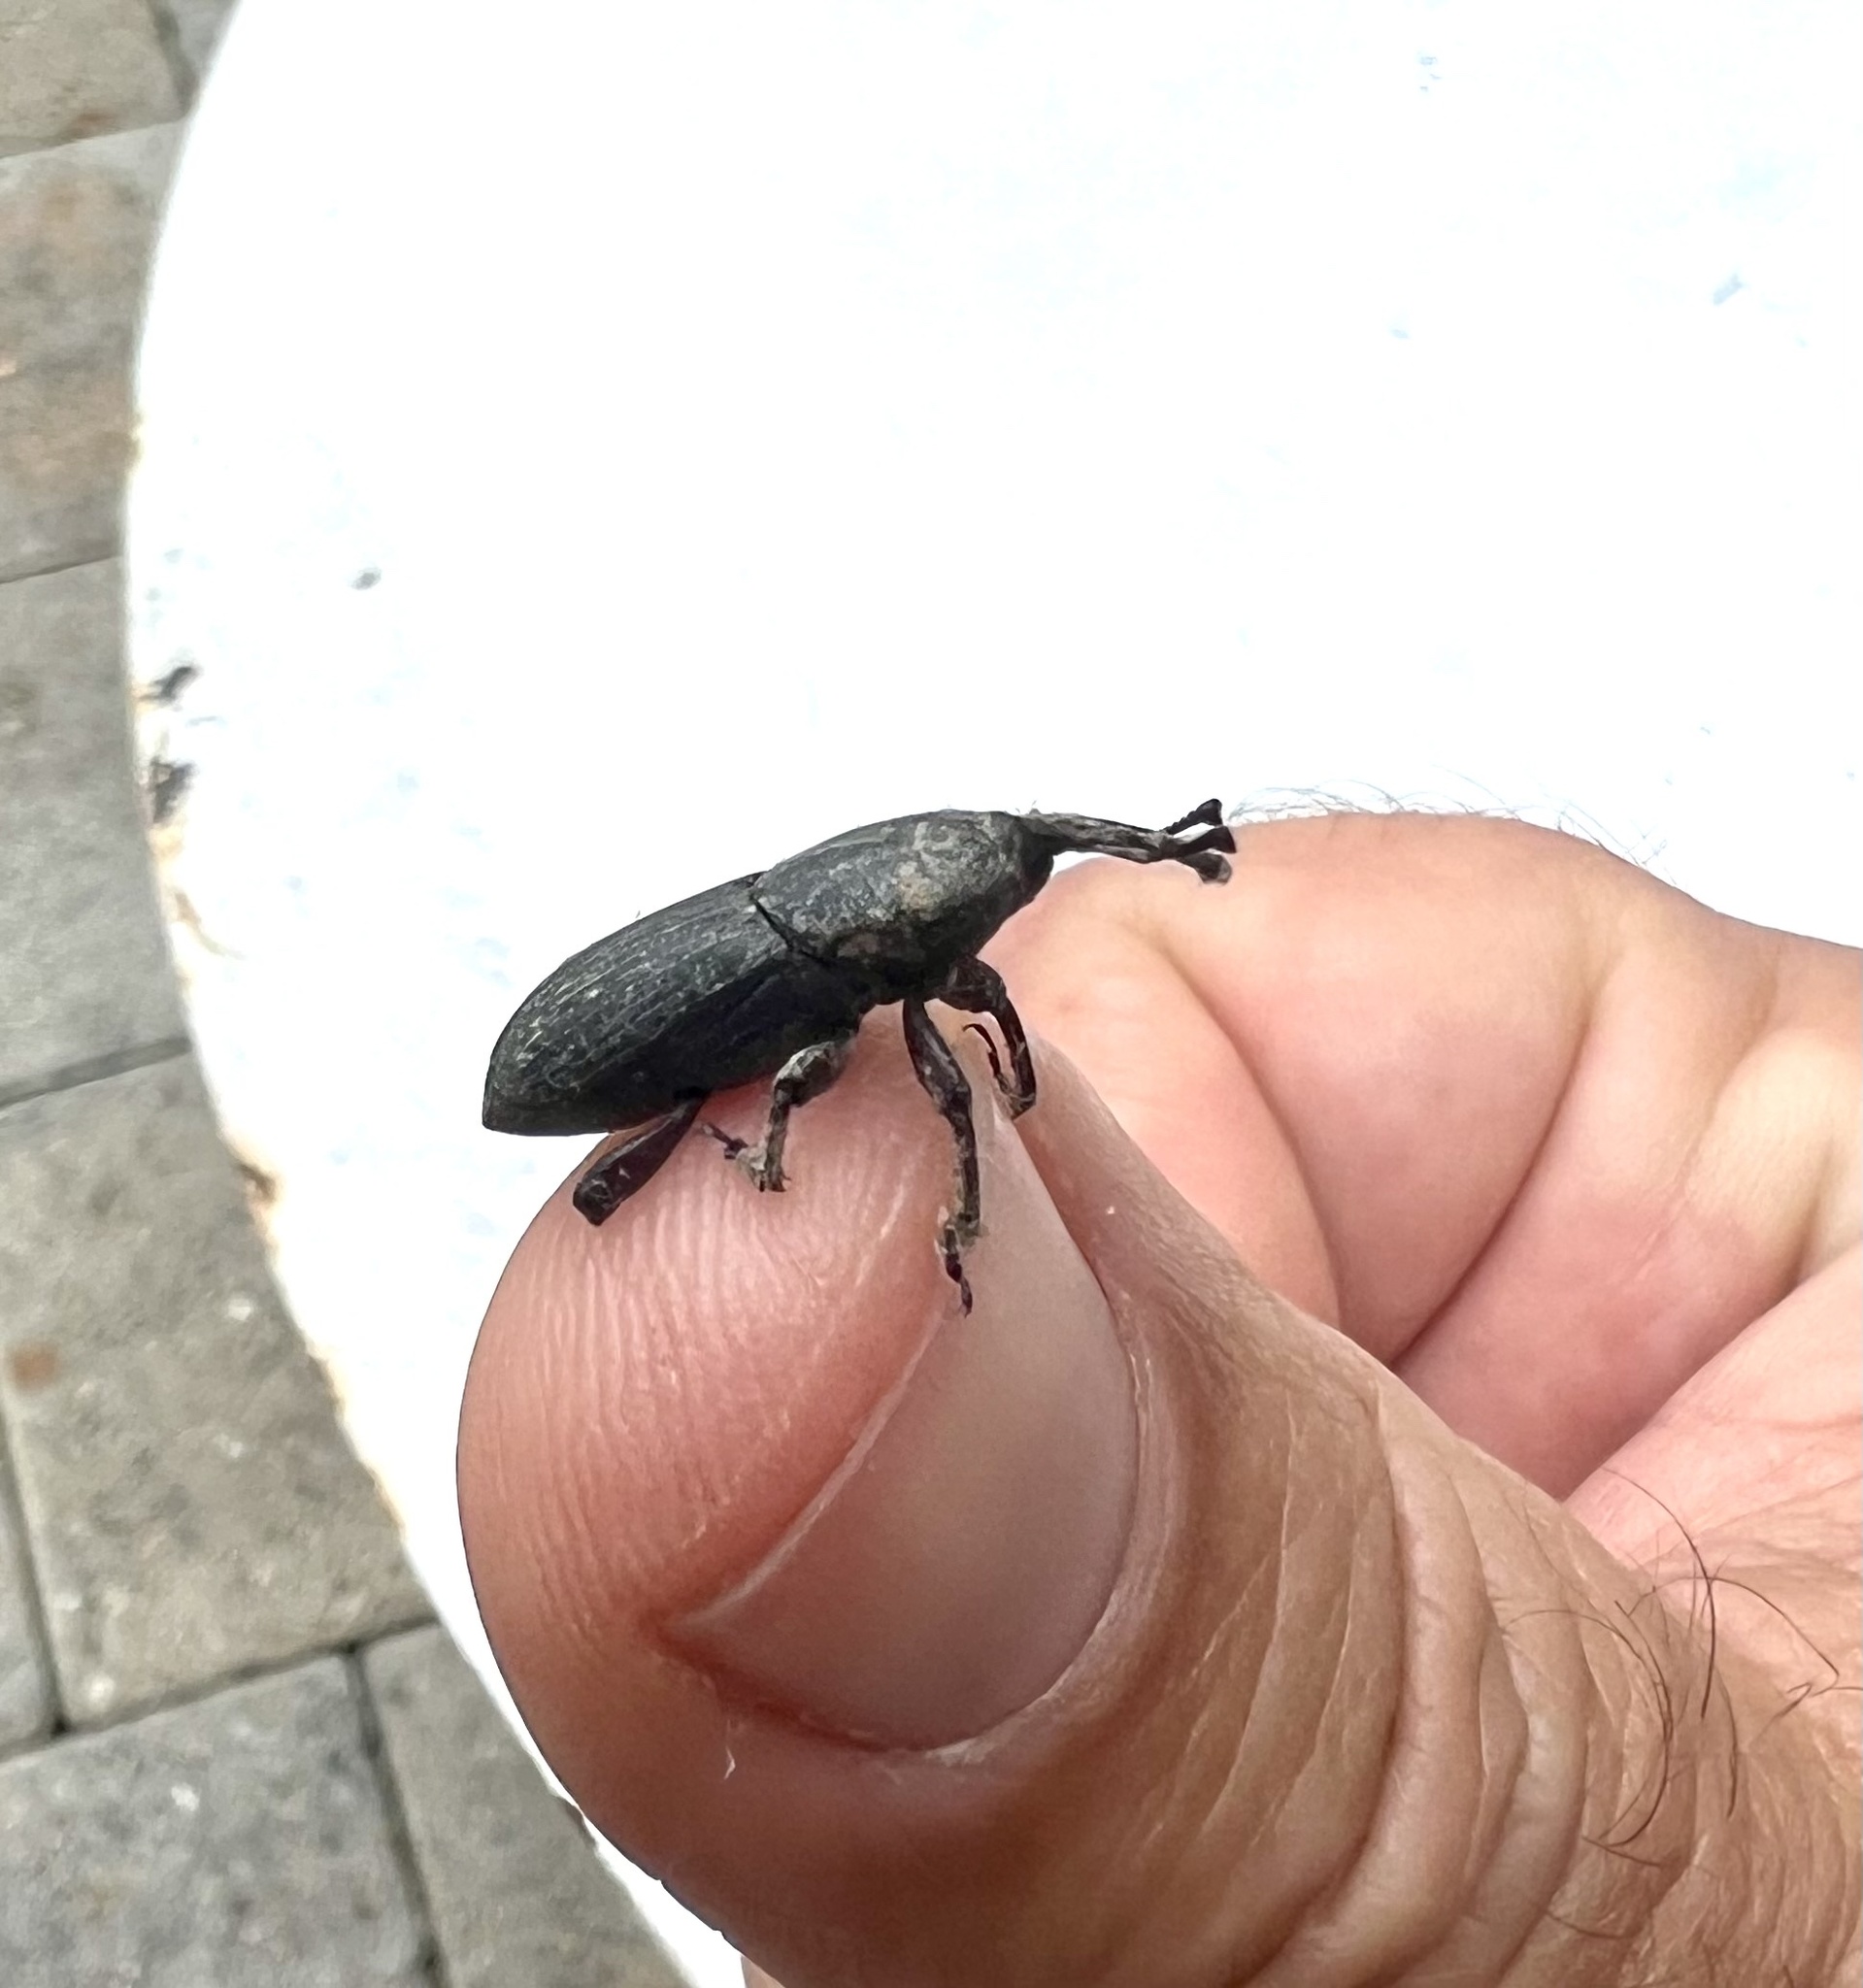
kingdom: Animalia
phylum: Arthropoda
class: Insecta
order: Coleoptera
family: Dryophthoridae
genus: Scyphophorus
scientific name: Scyphophorus acupunctatus
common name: Weevil
